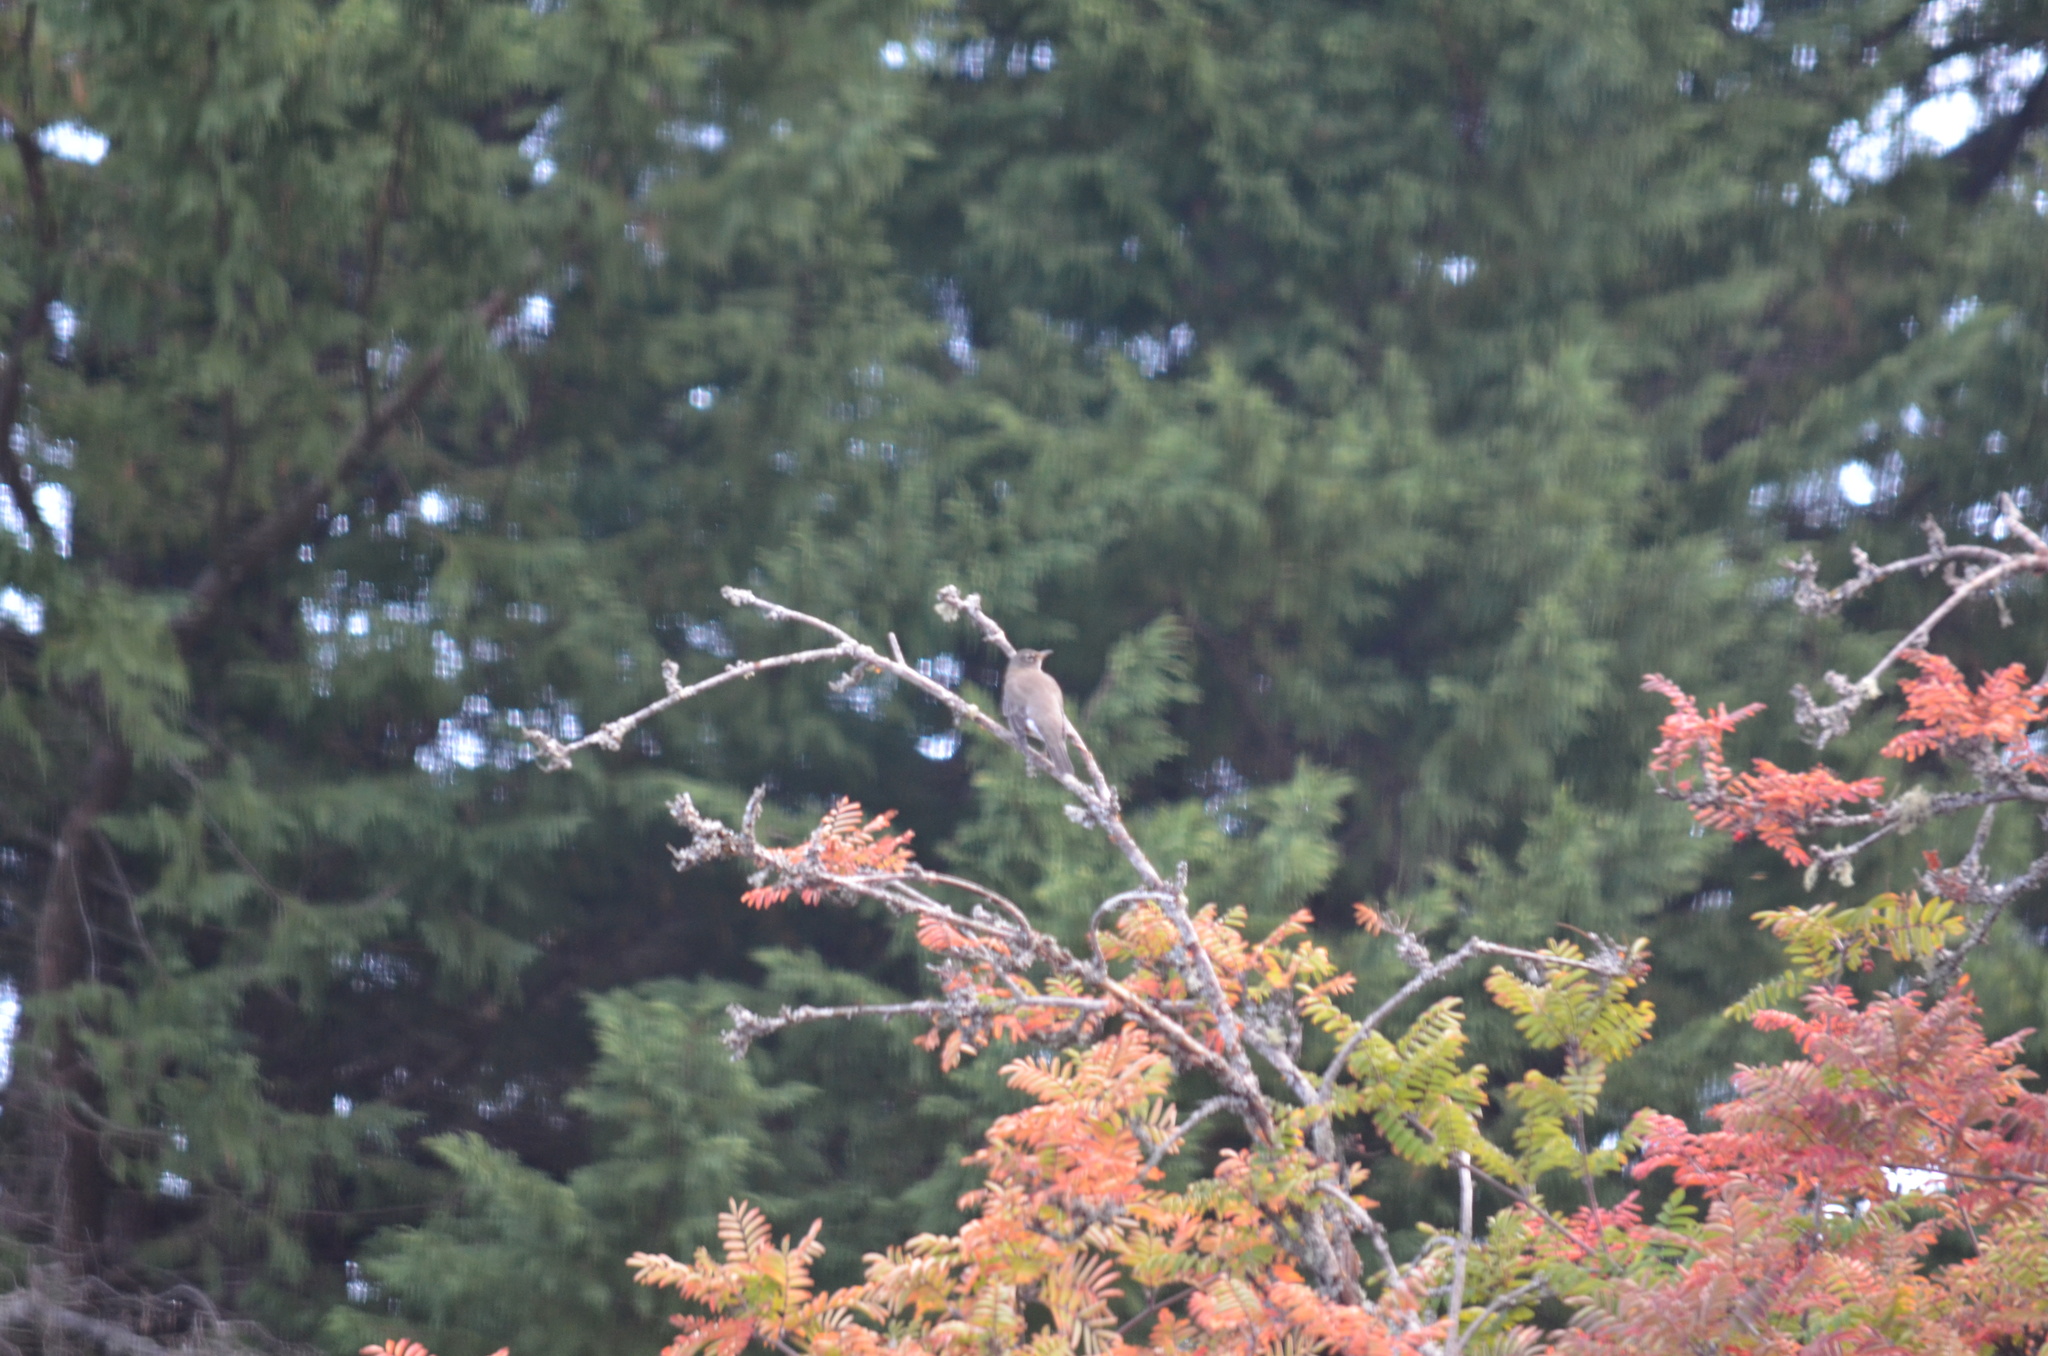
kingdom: Animalia
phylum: Chordata
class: Aves
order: Passeriformes
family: Turdidae
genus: Turdus
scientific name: Turdus migratorius
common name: American robin
